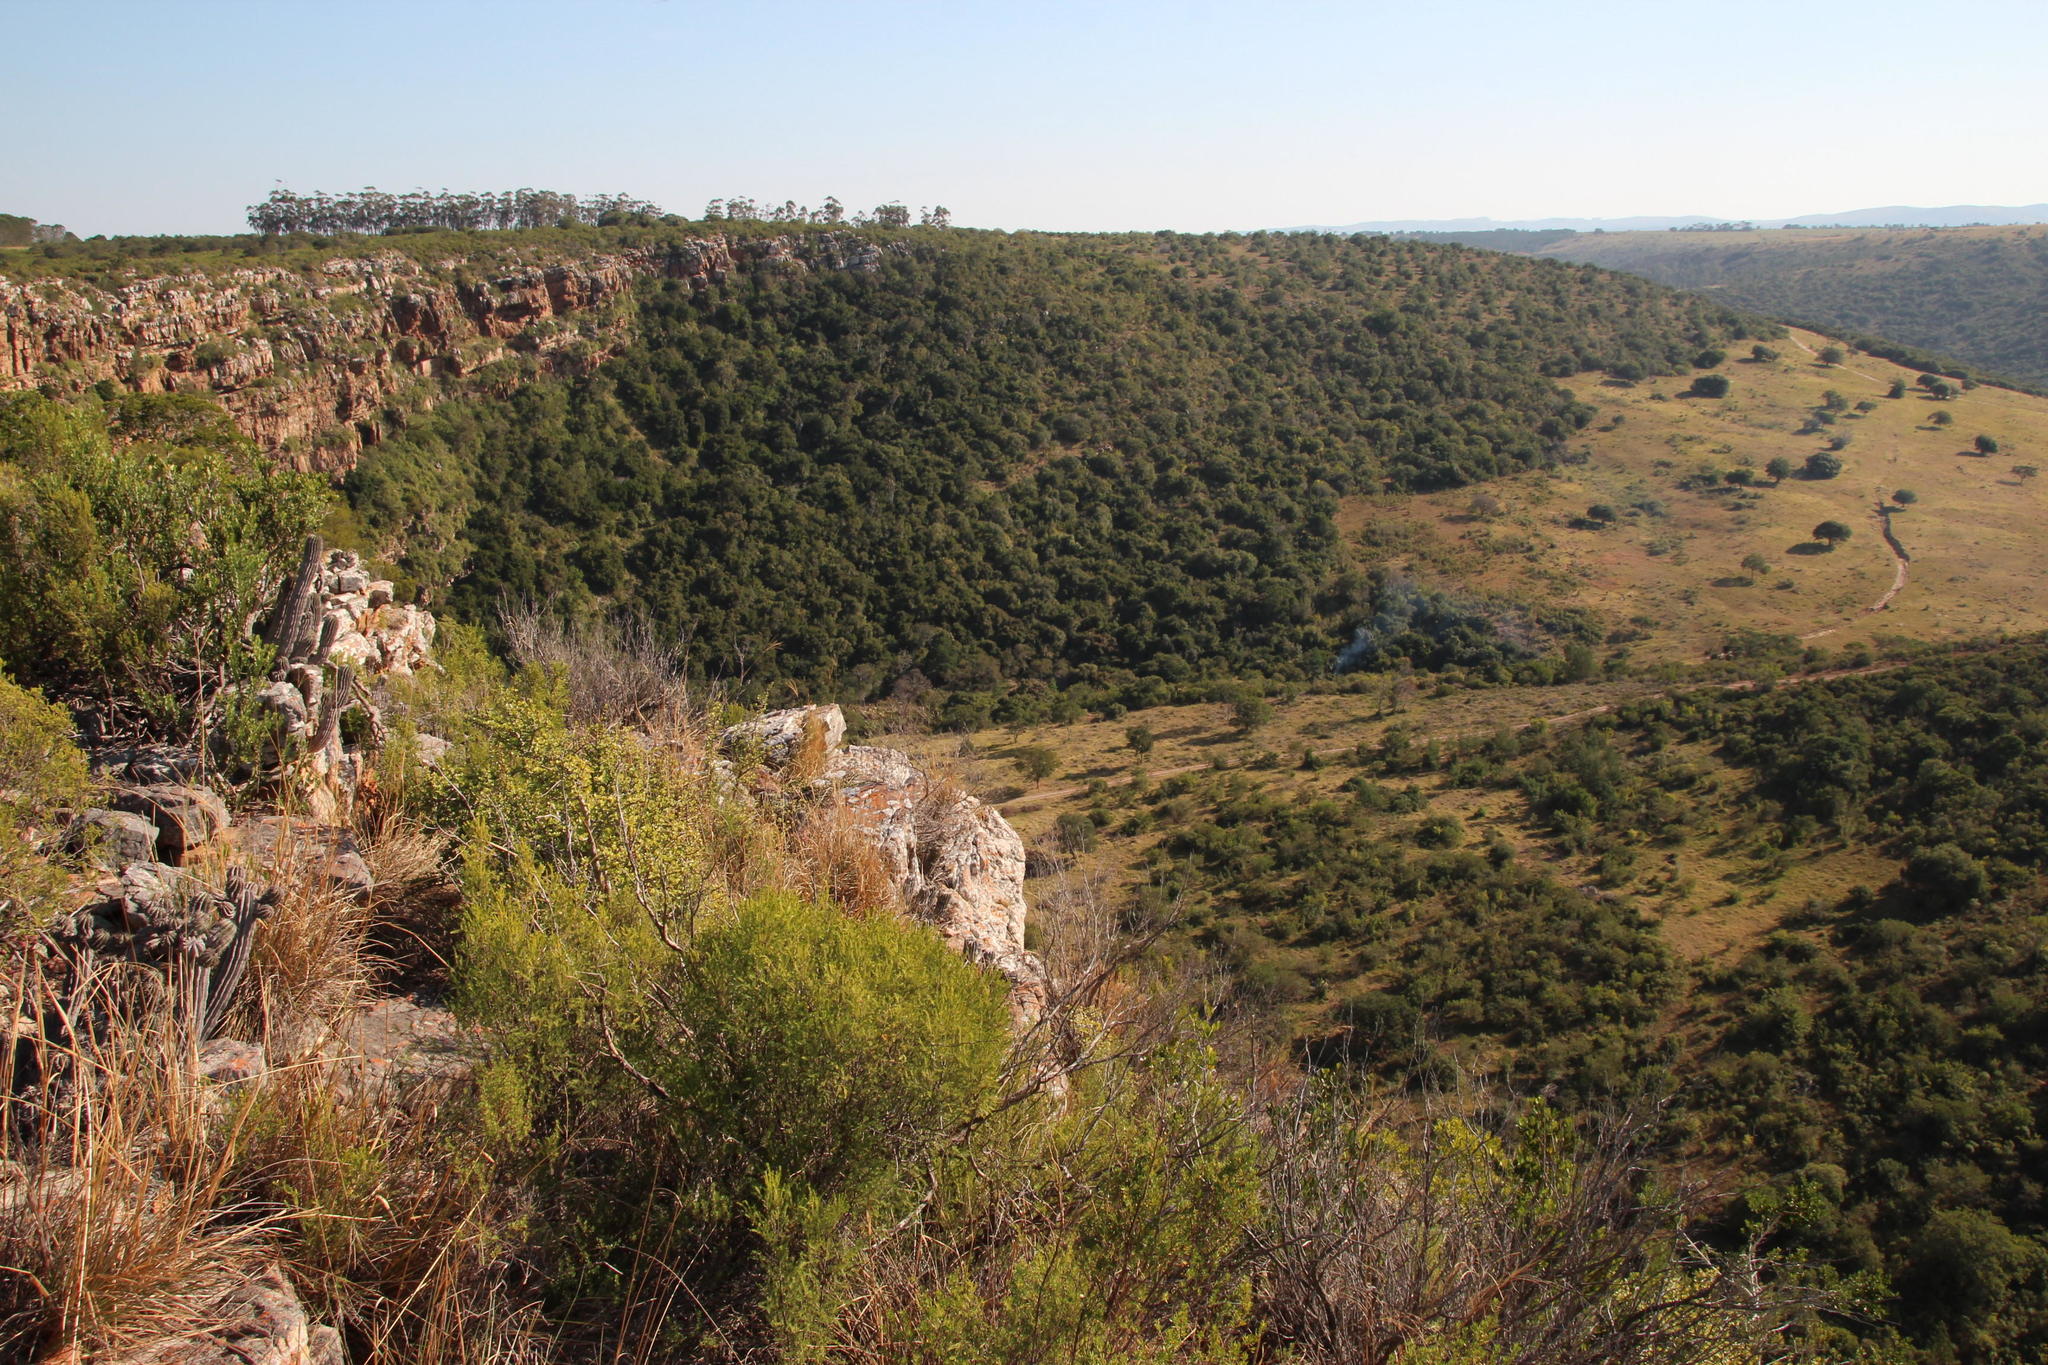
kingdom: Plantae
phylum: Tracheophyta
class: Magnoliopsida
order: Malpighiales
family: Euphorbiaceae
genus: Euphorbia
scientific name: Euphorbia polygona
